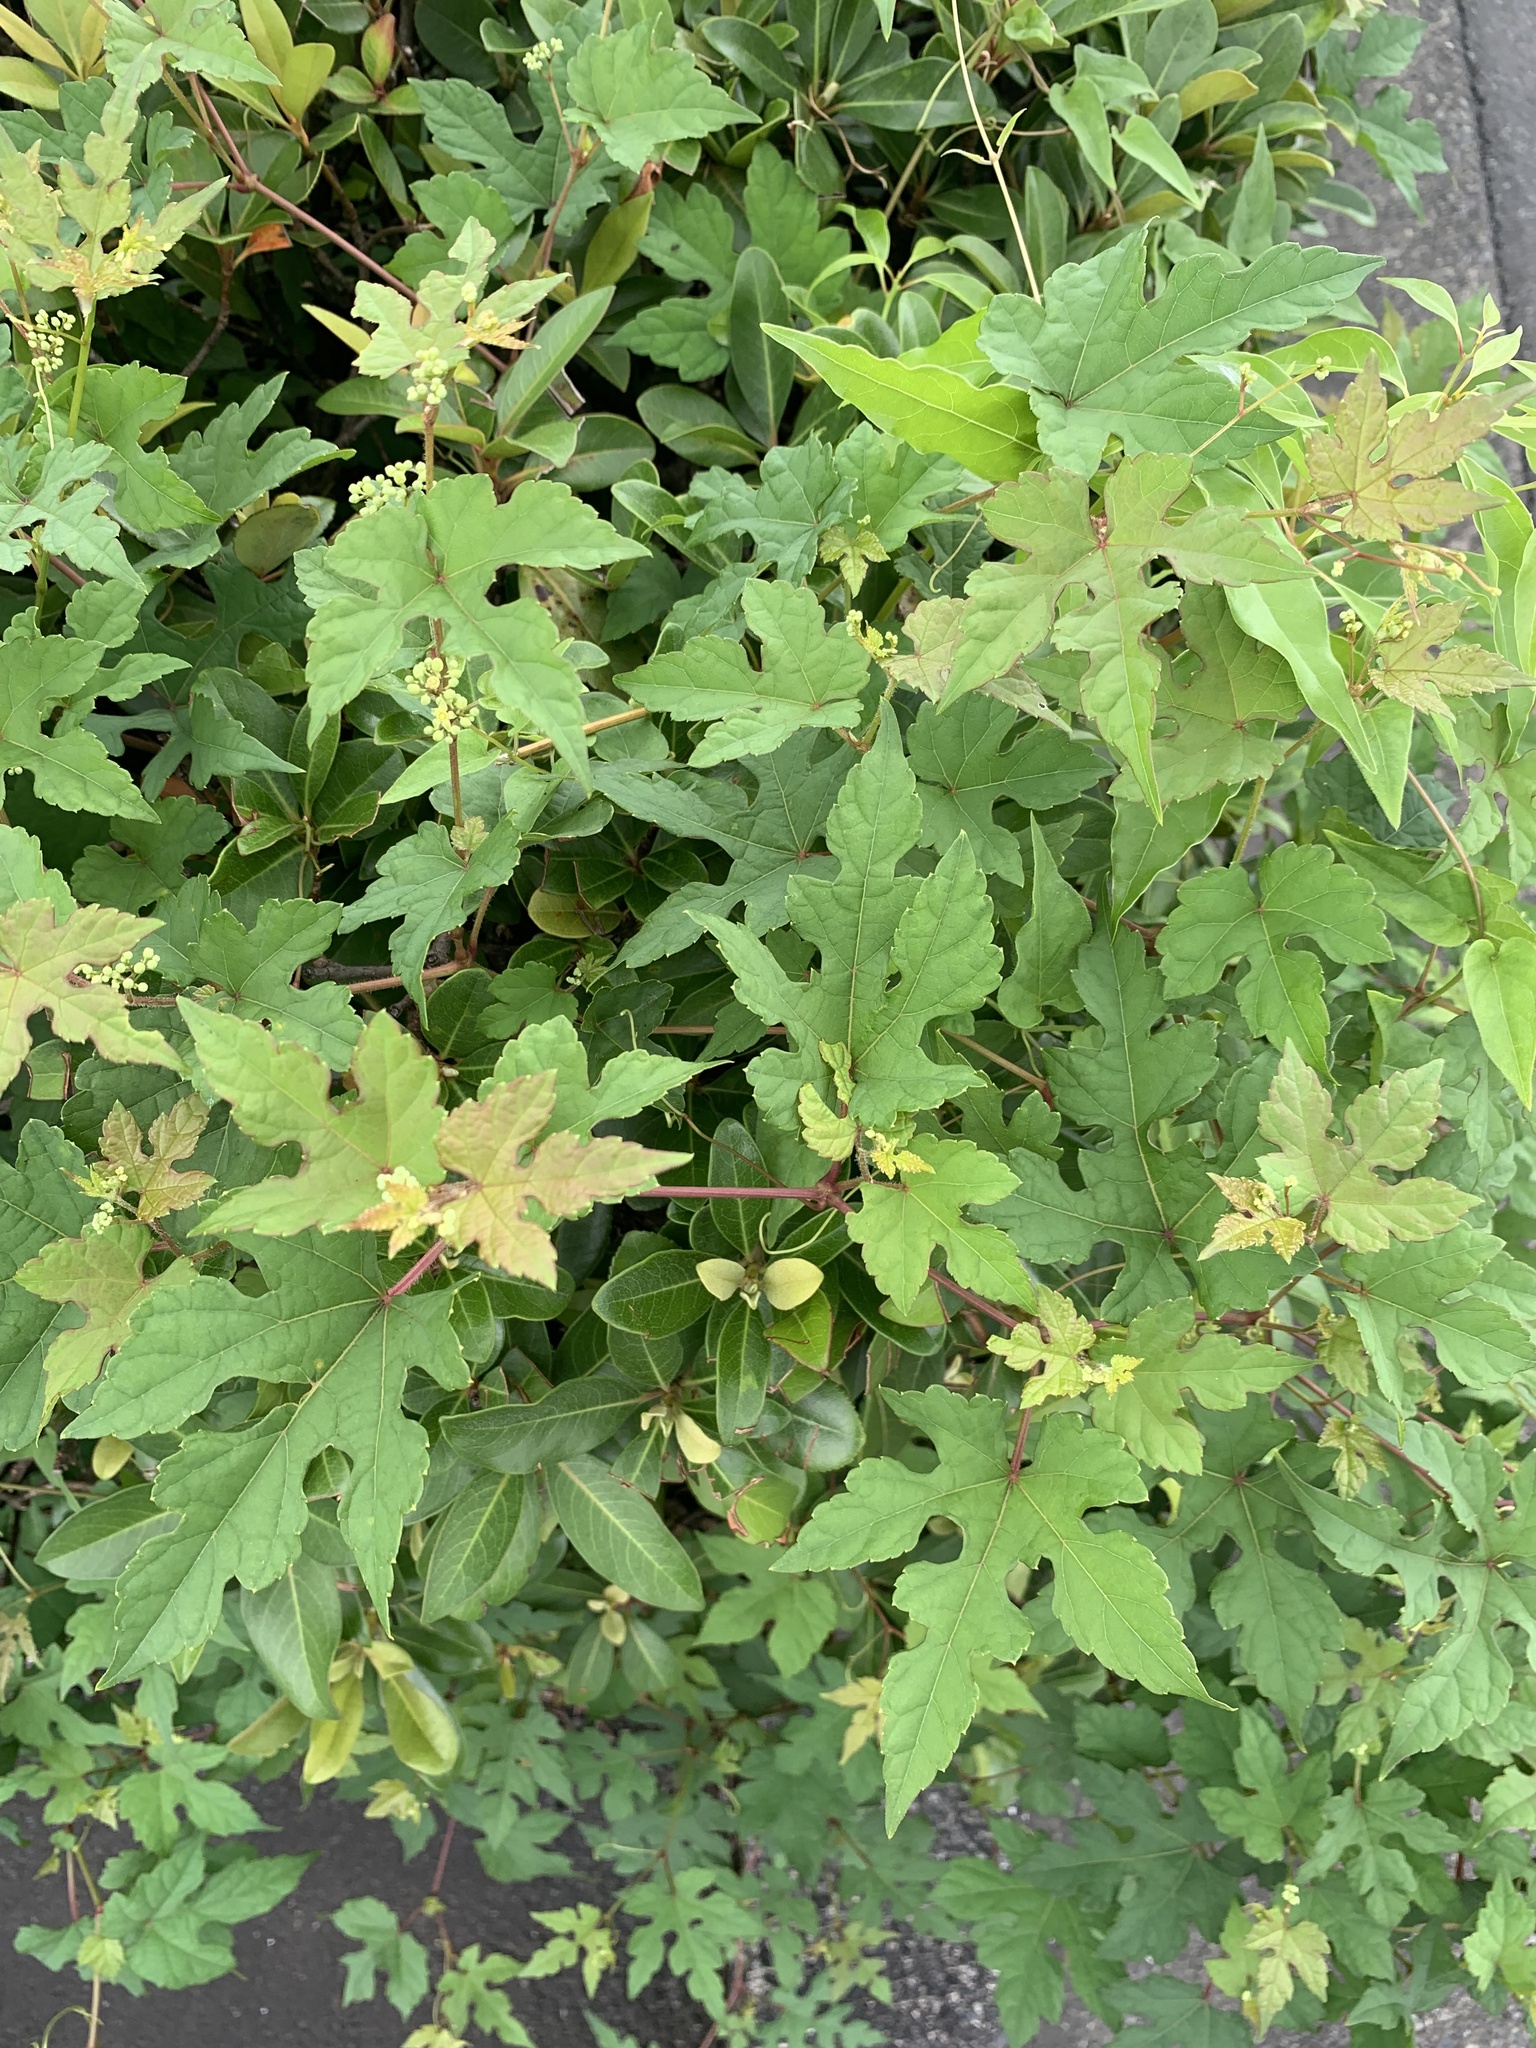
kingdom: Plantae
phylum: Tracheophyta
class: Magnoliopsida
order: Vitales
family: Vitaceae
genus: Ampelopsis
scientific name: Ampelopsis glandulosa
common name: Amur peppervine
